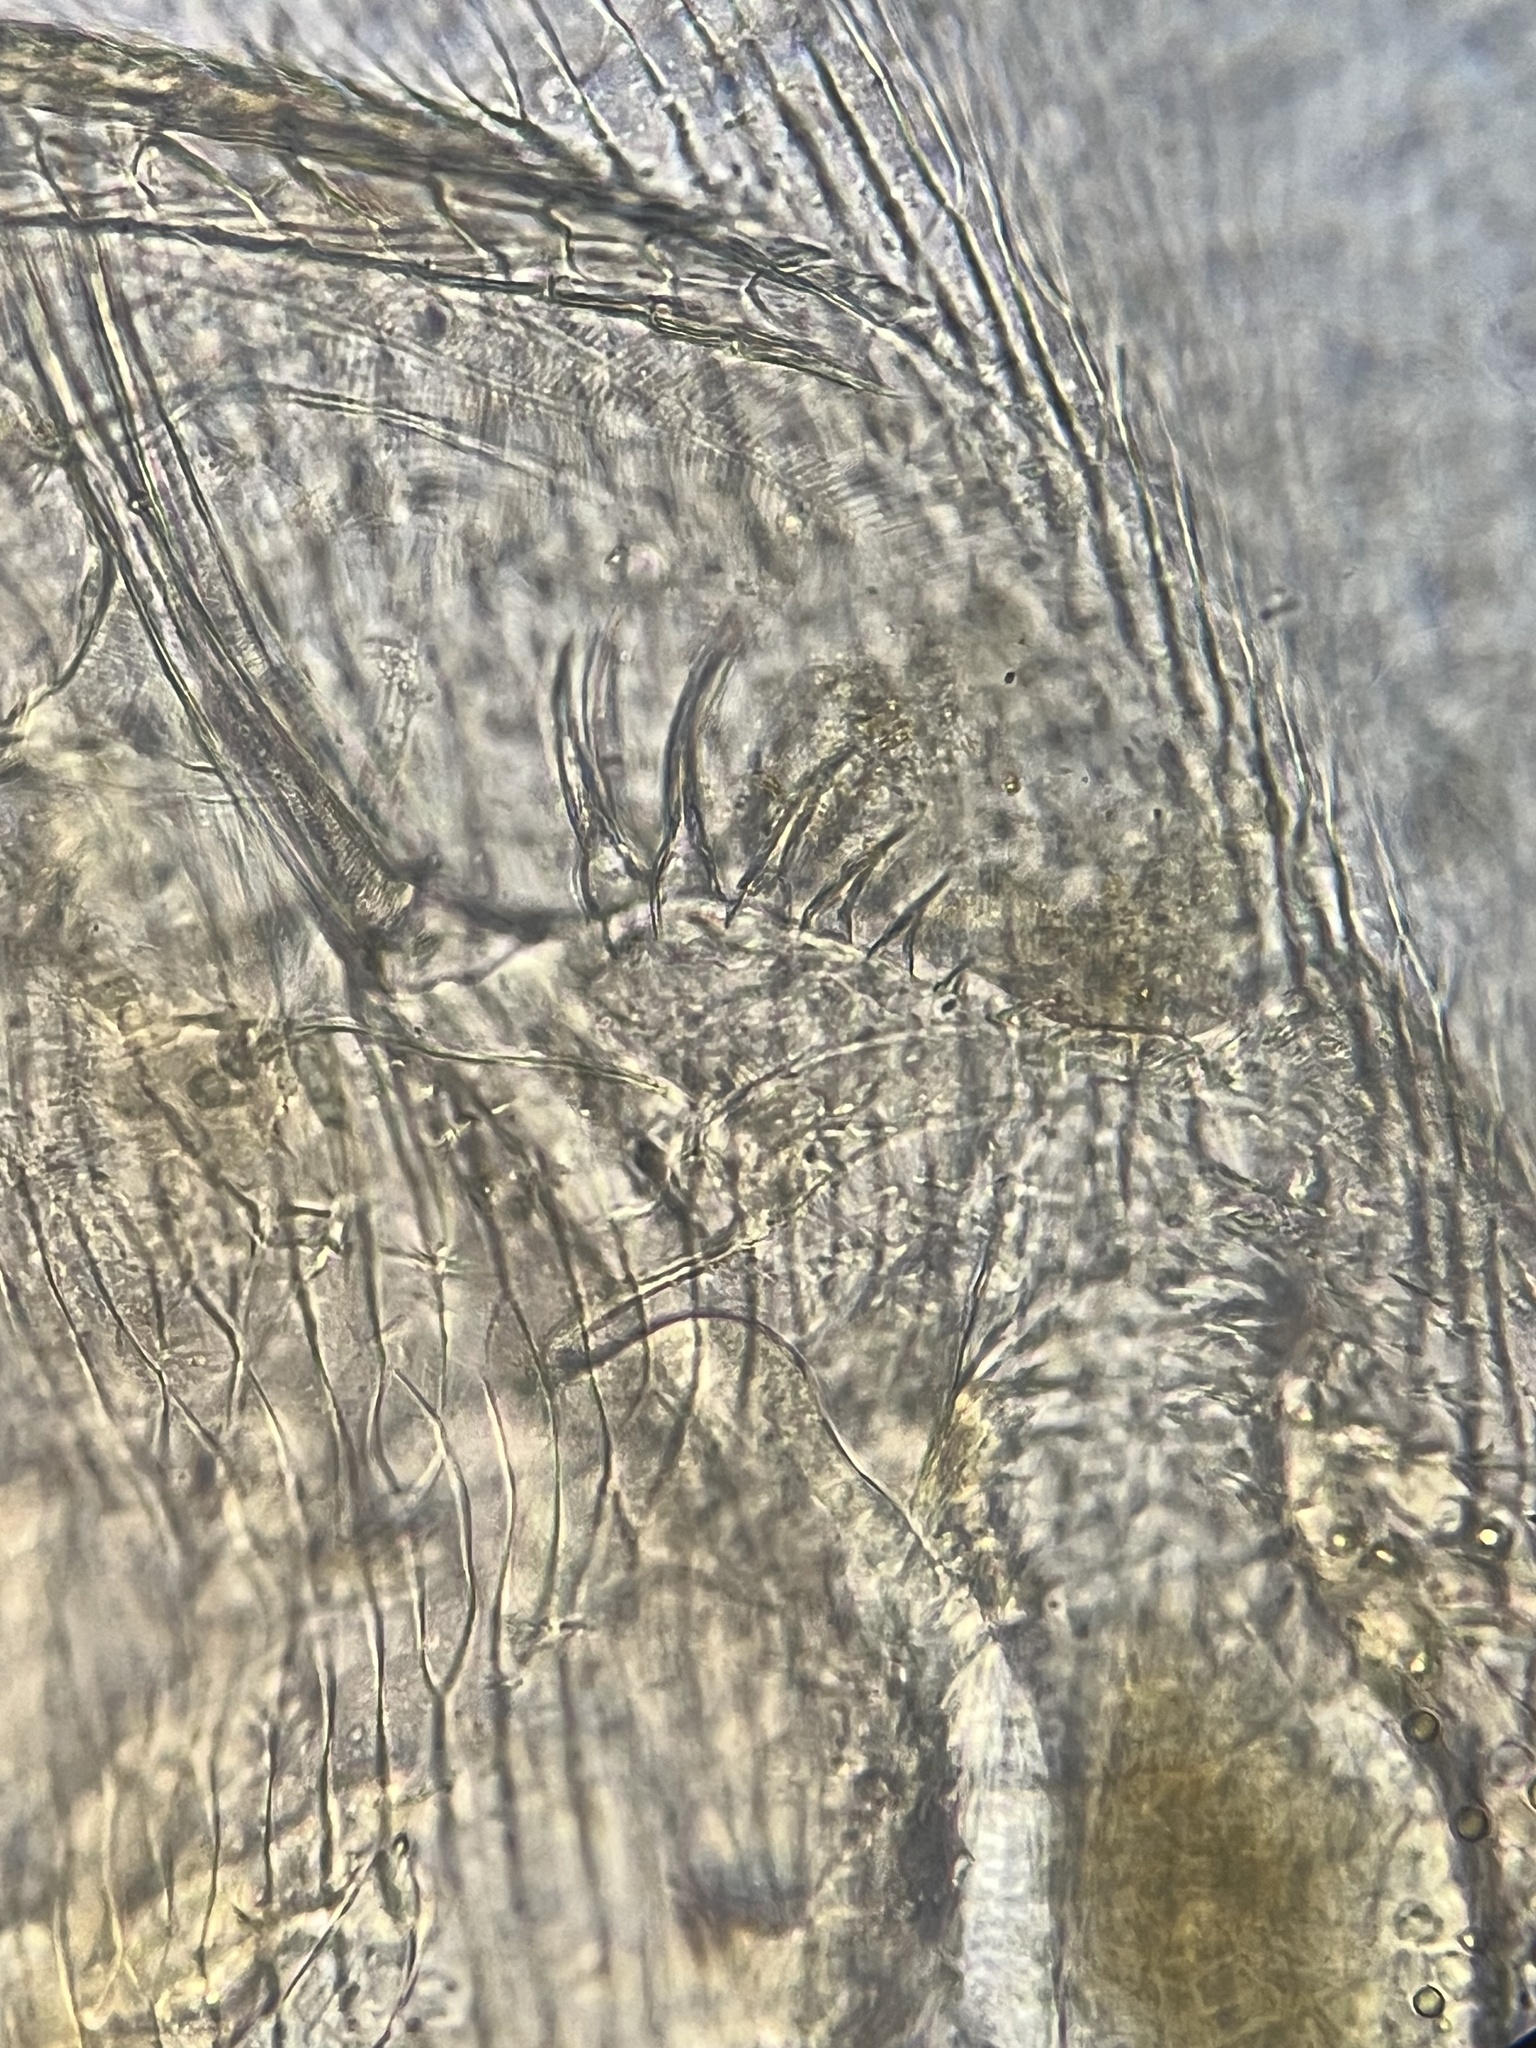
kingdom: Animalia
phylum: Arthropoda
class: Branchiopoda
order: Diplostraca
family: Daphniidae
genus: Simocephalus
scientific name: Simocephalus exspinosus
